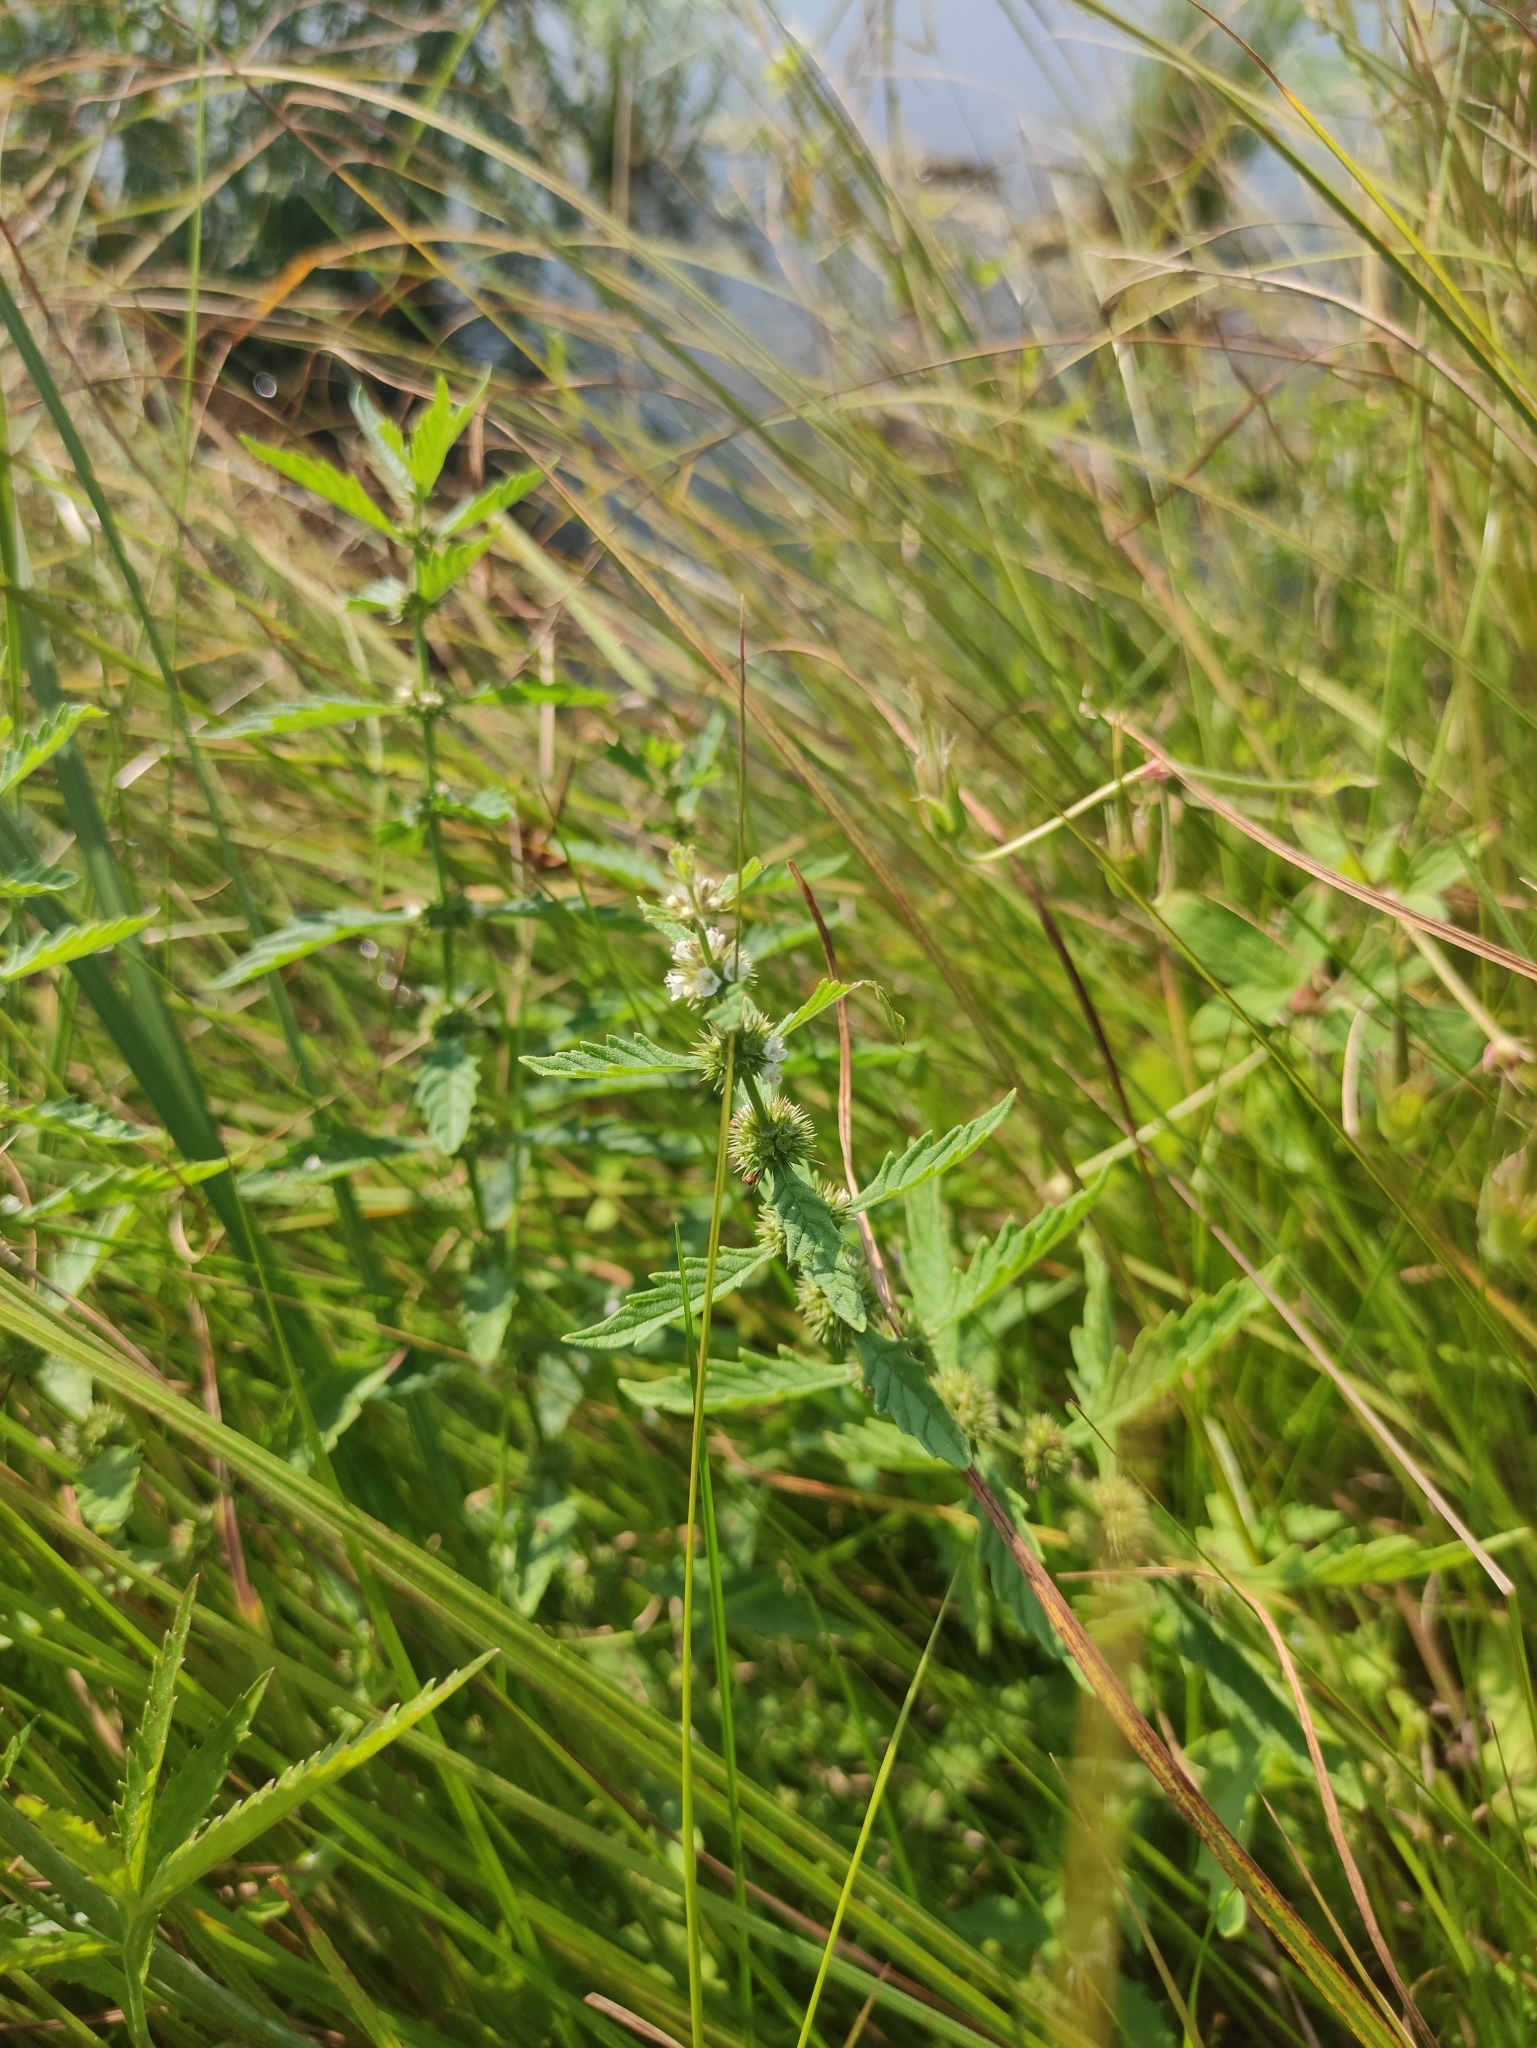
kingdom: Plantae
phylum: Tracheophyta
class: Magnoliopsida
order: Lamiales
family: Lamiaceae
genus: Lycopus
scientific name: Lycopus europaeus
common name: European bugleweed
